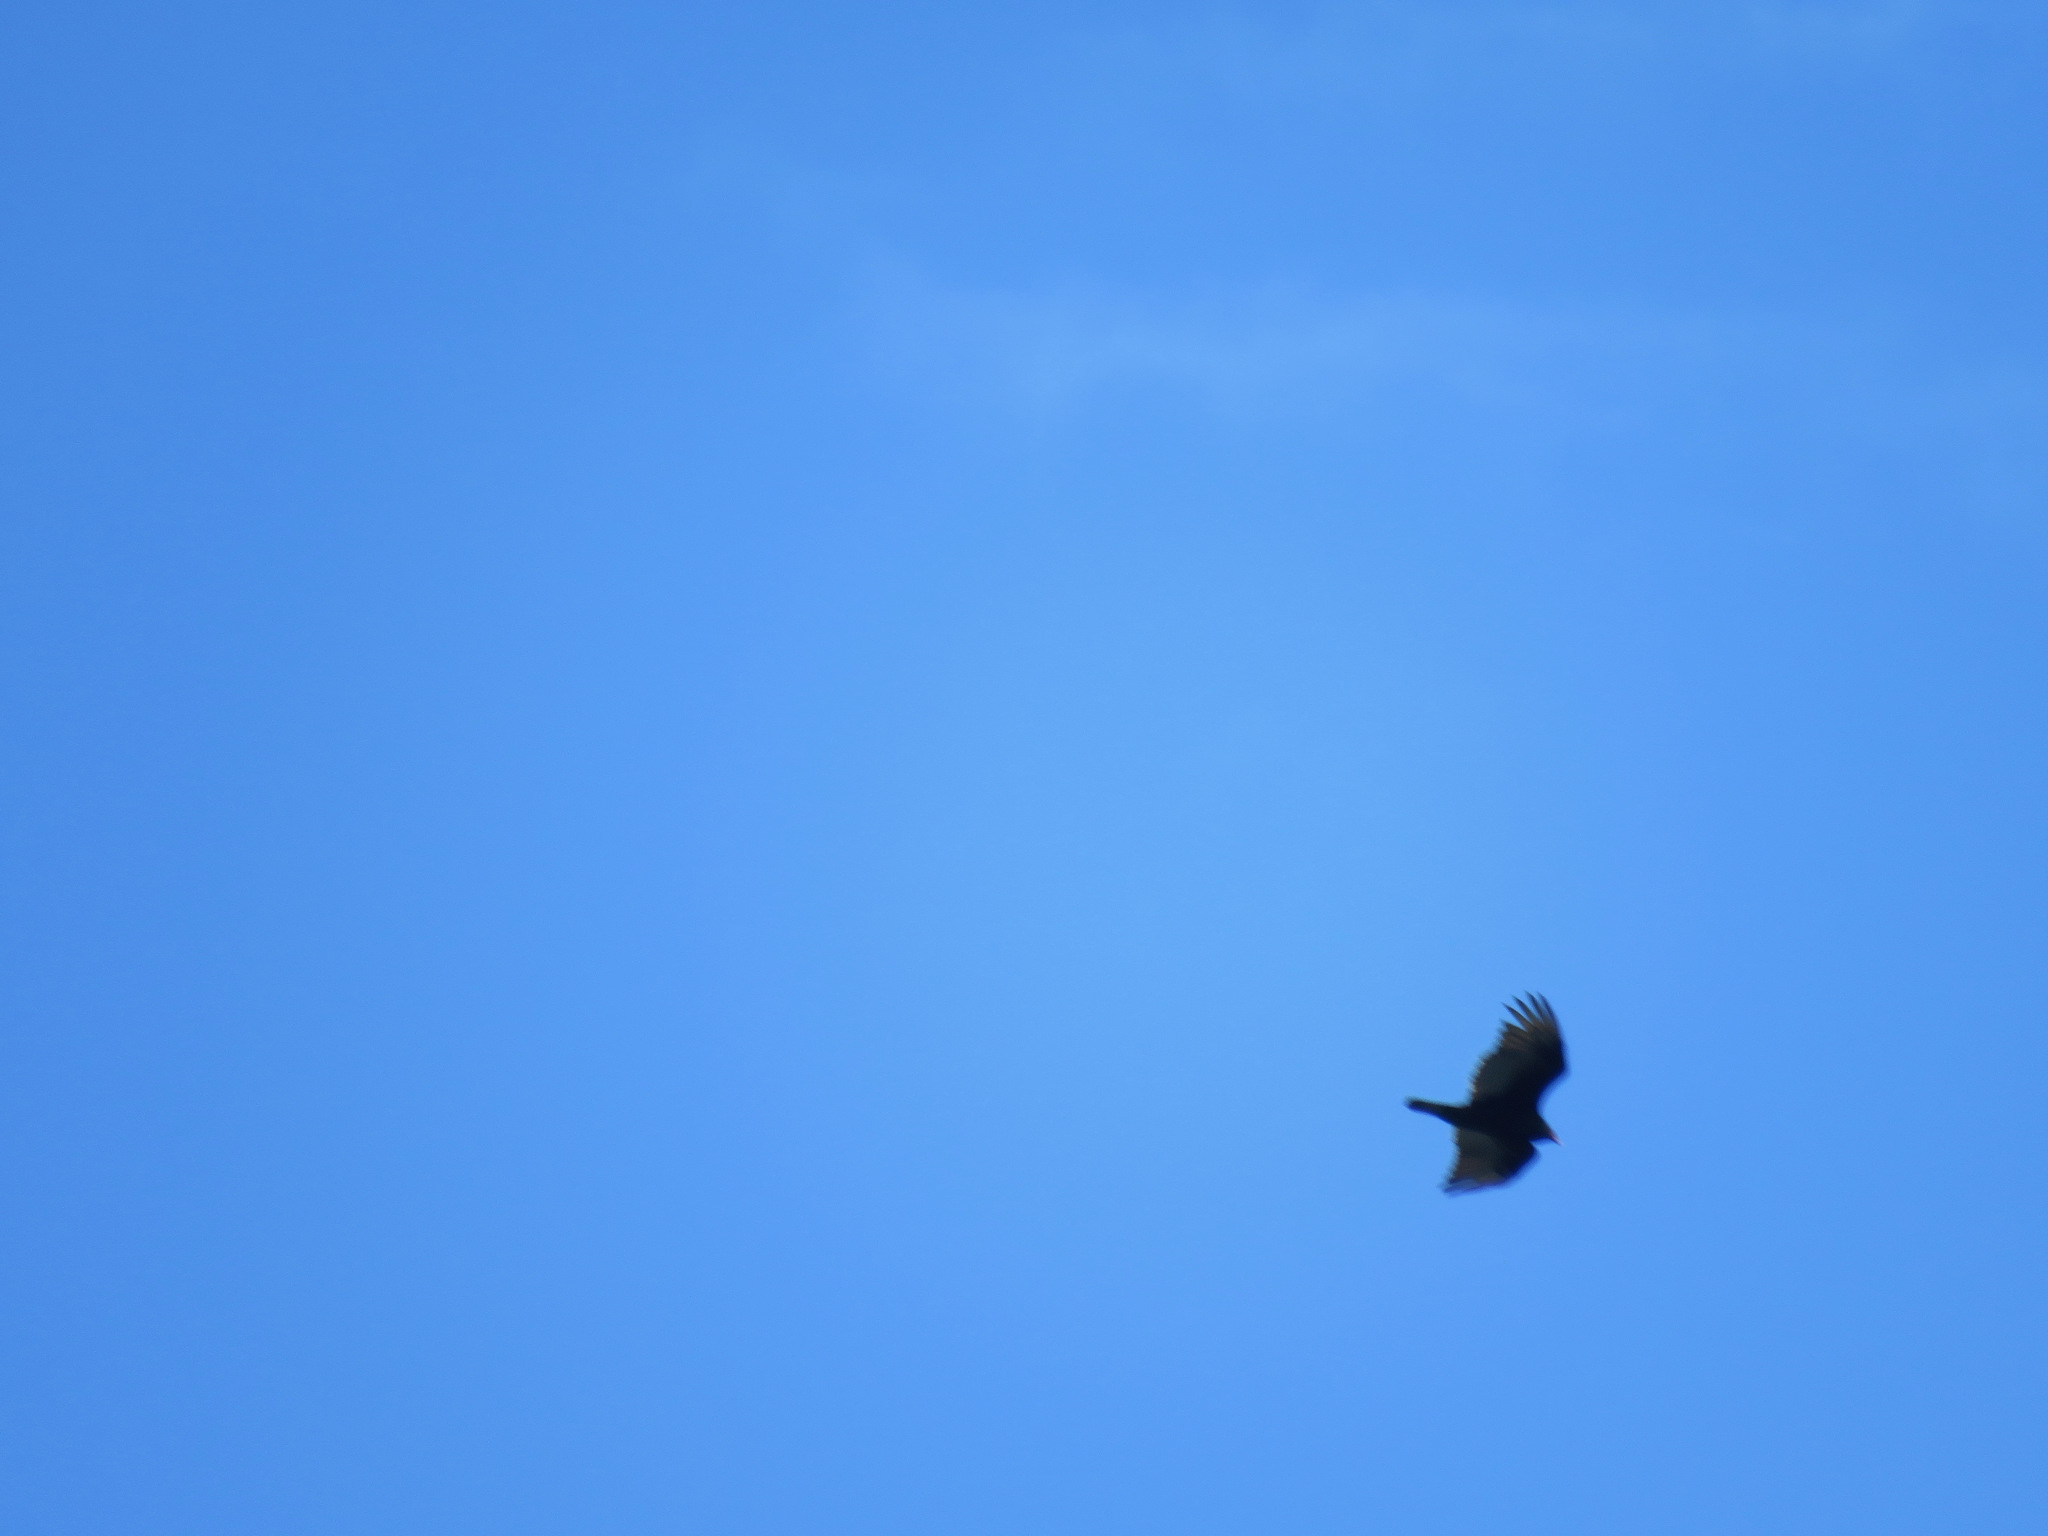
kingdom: Animalia
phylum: Chordata
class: Aves
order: Accipitriformes
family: Cathartidae
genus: Cathartes
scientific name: Cathartes aura
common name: Turkey vulture
